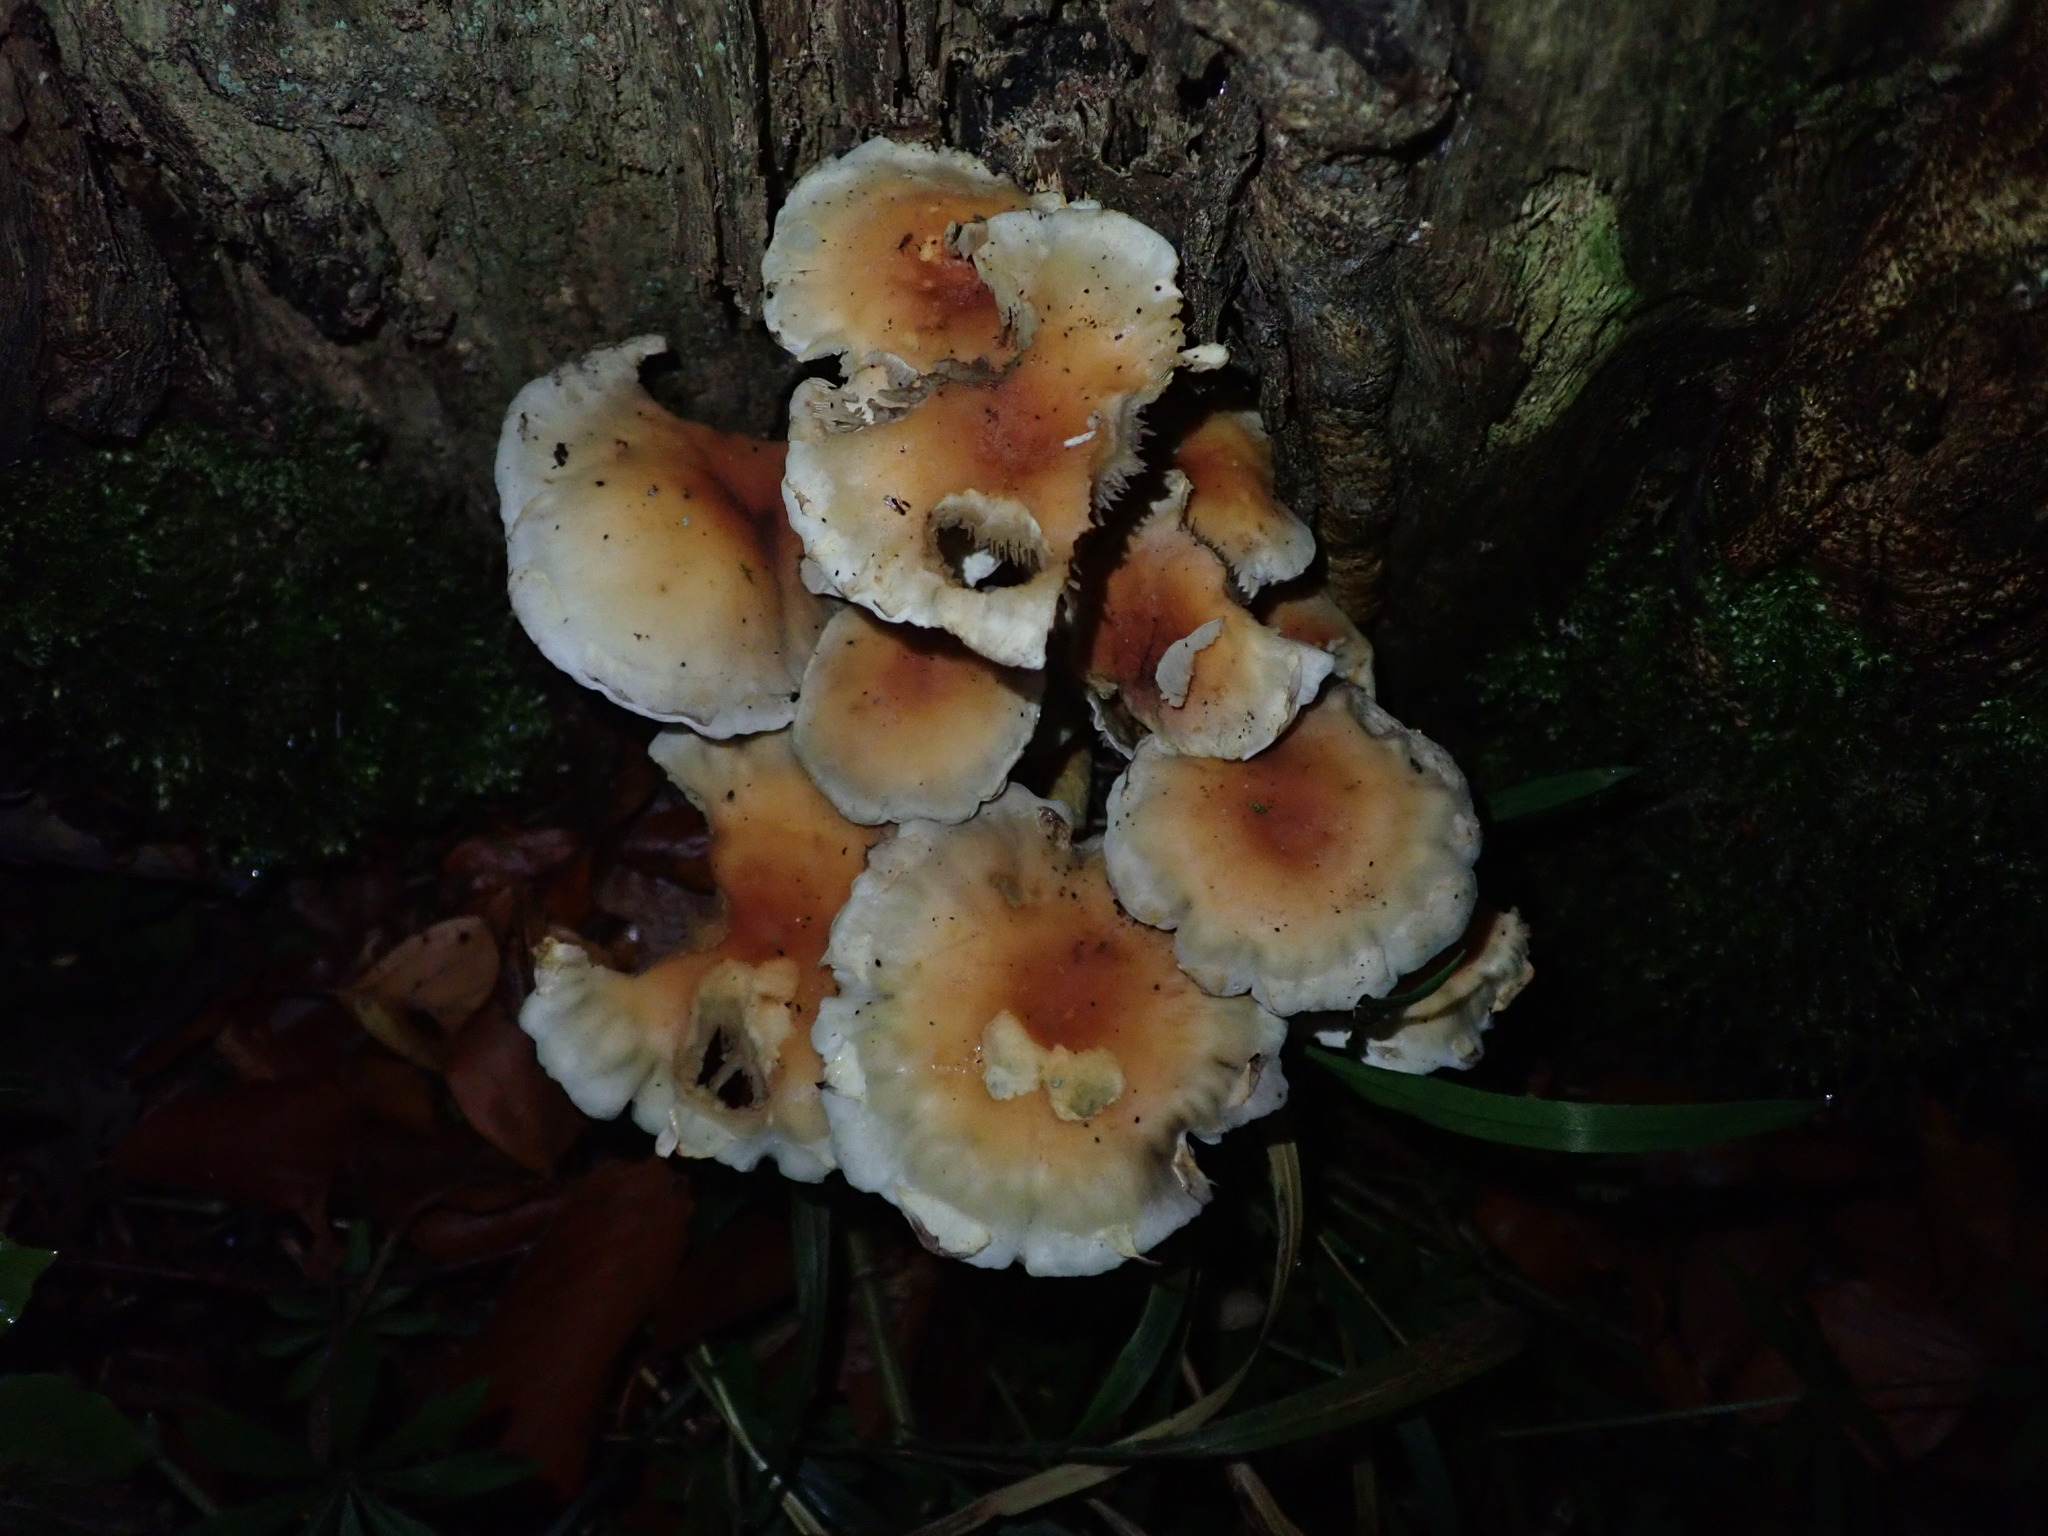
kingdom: Fungi
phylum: Basidiomycota
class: Agaricomycetes
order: Agaricales
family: Strophariaceae
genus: Hypholoma
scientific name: Hypholoma fasciculare
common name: Sulphur tuft
